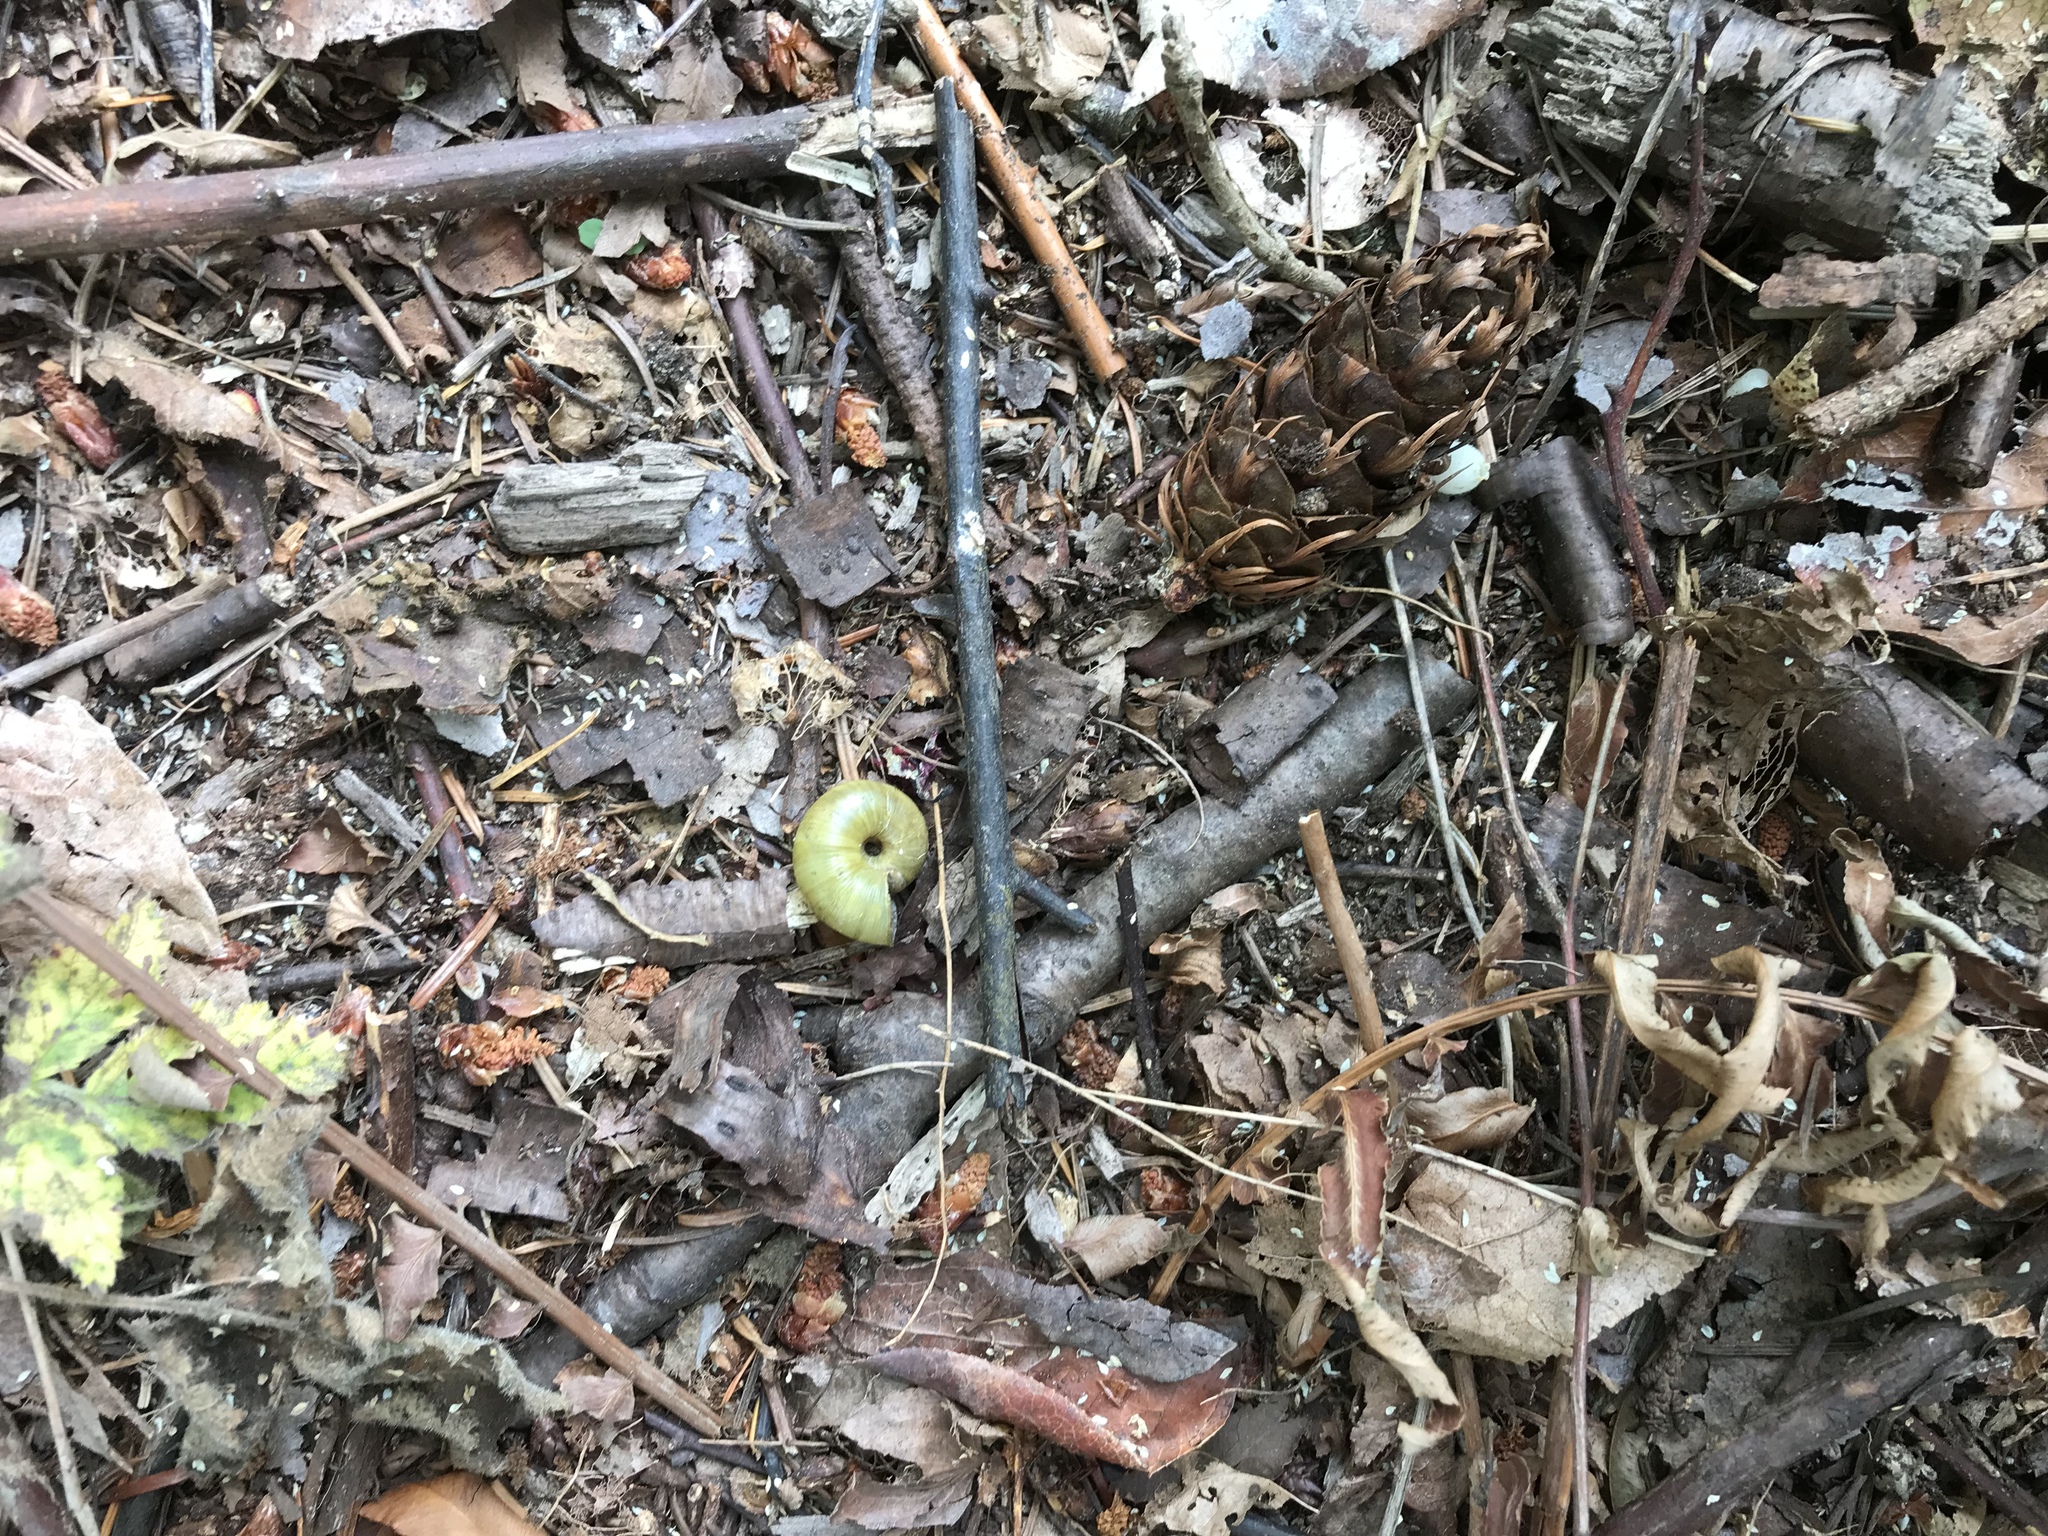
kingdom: Animalia
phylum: Mollusca
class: Gastropoda
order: Stylommatophora
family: Haplotrematidae
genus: Haplotrema
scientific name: Haplotrema vancouverense
